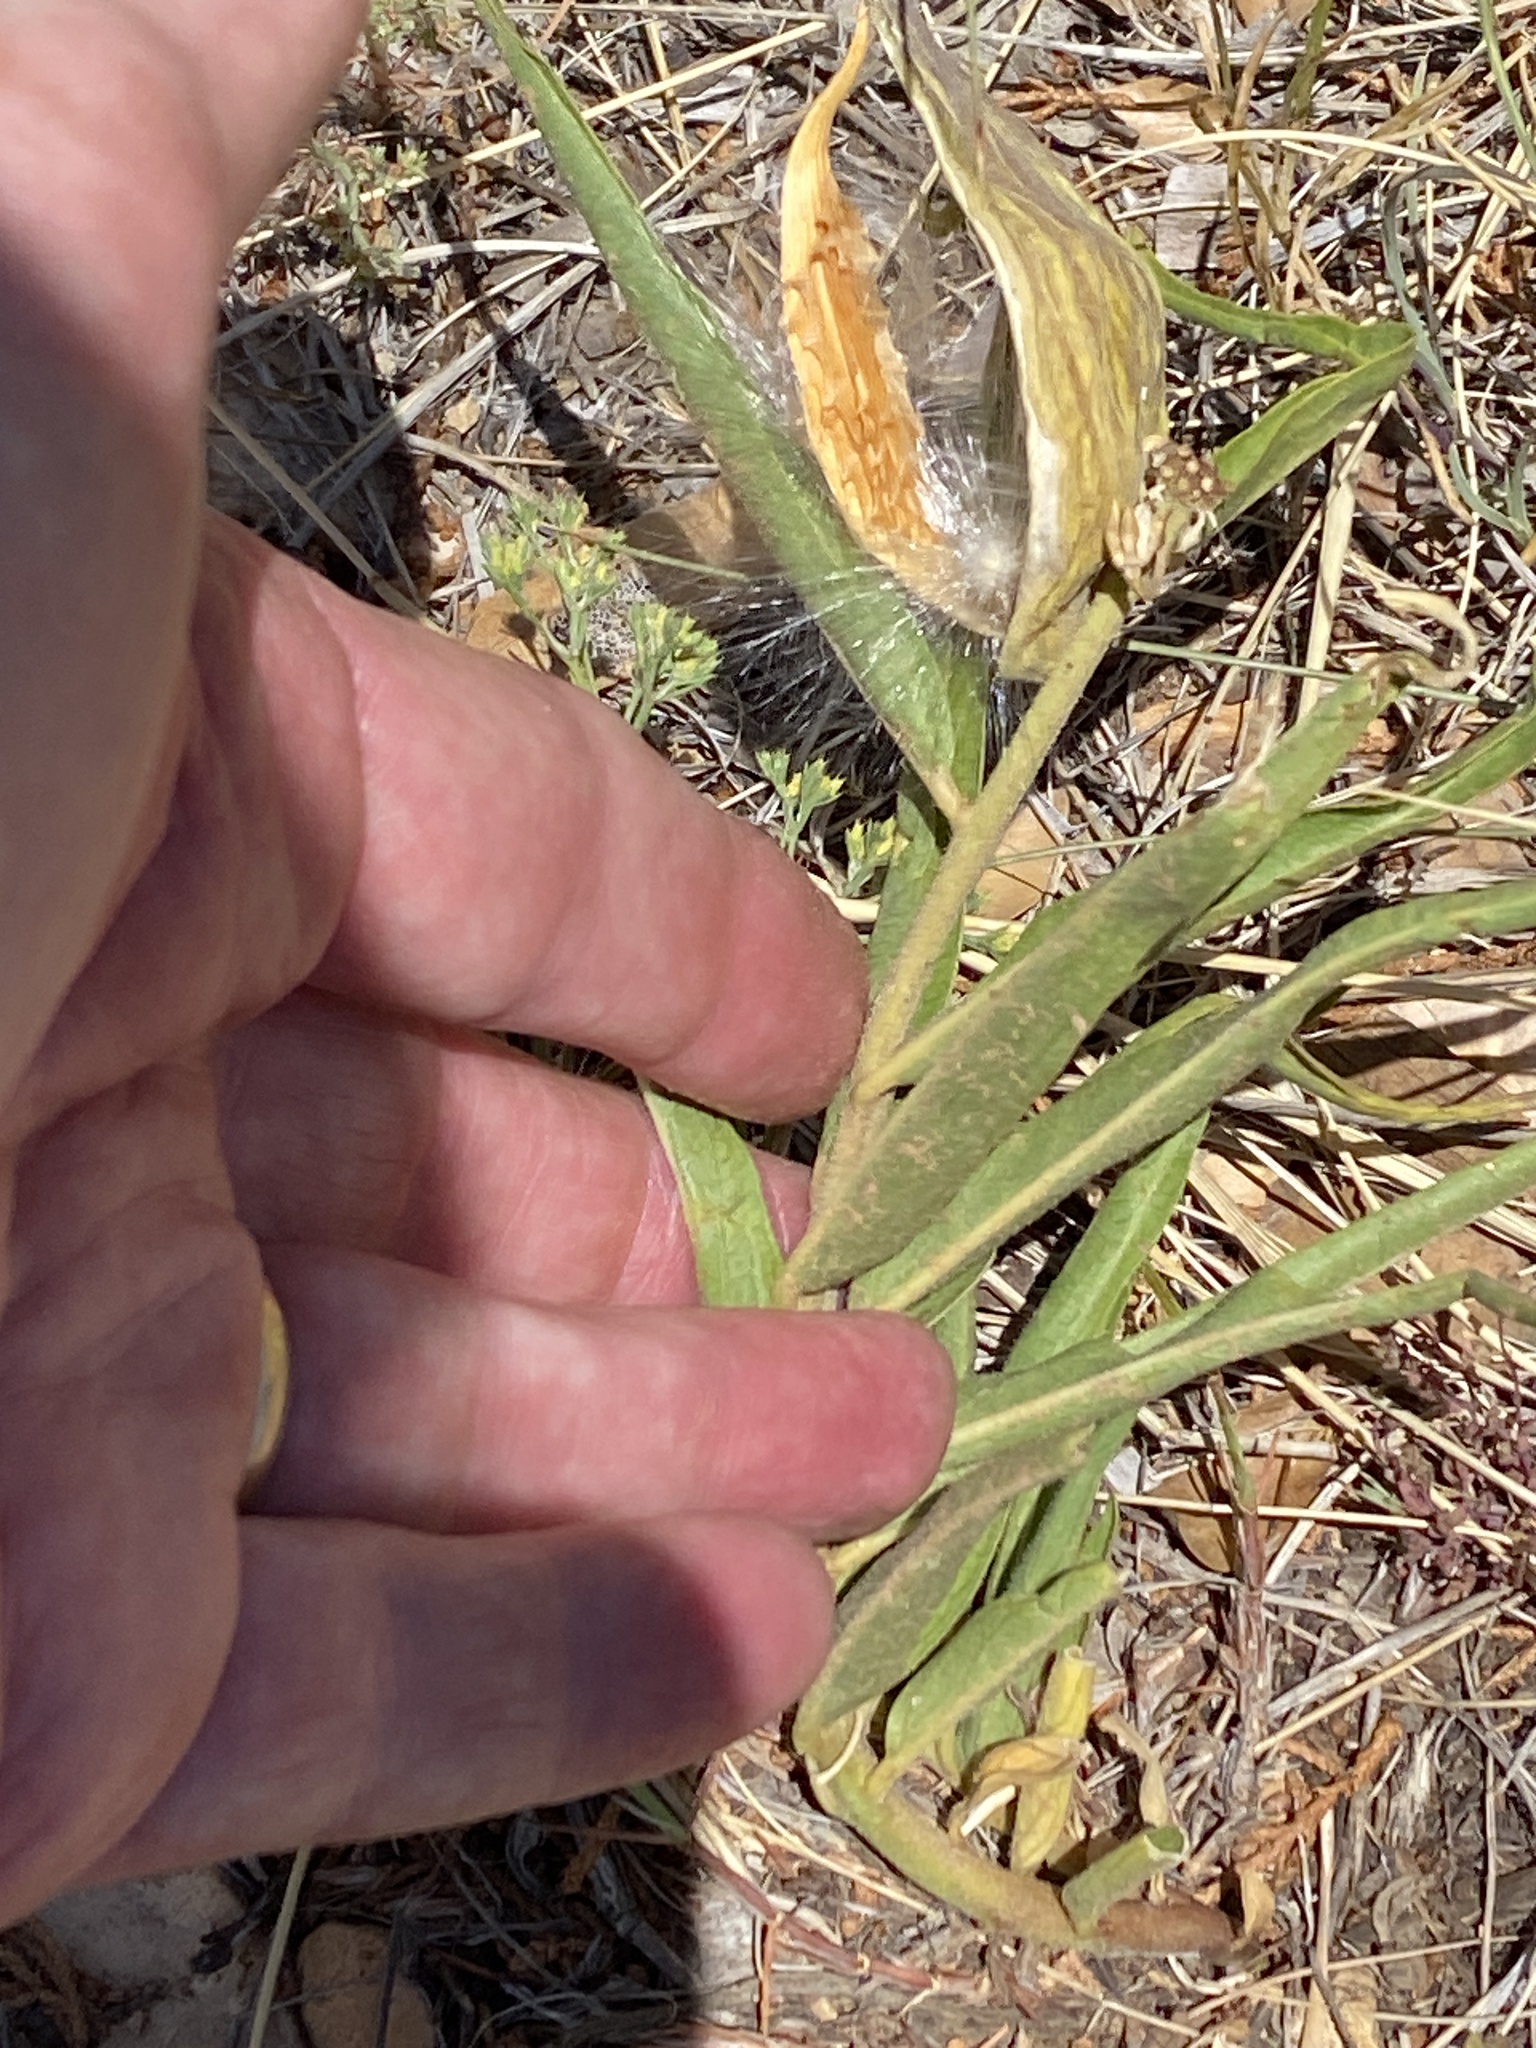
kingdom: Plantae
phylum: Tracheophyta
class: Magnoliopsida
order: Gentianales
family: Apocynaceae
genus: Asclepias
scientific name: Asclepias asperula
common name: Antelope horns
